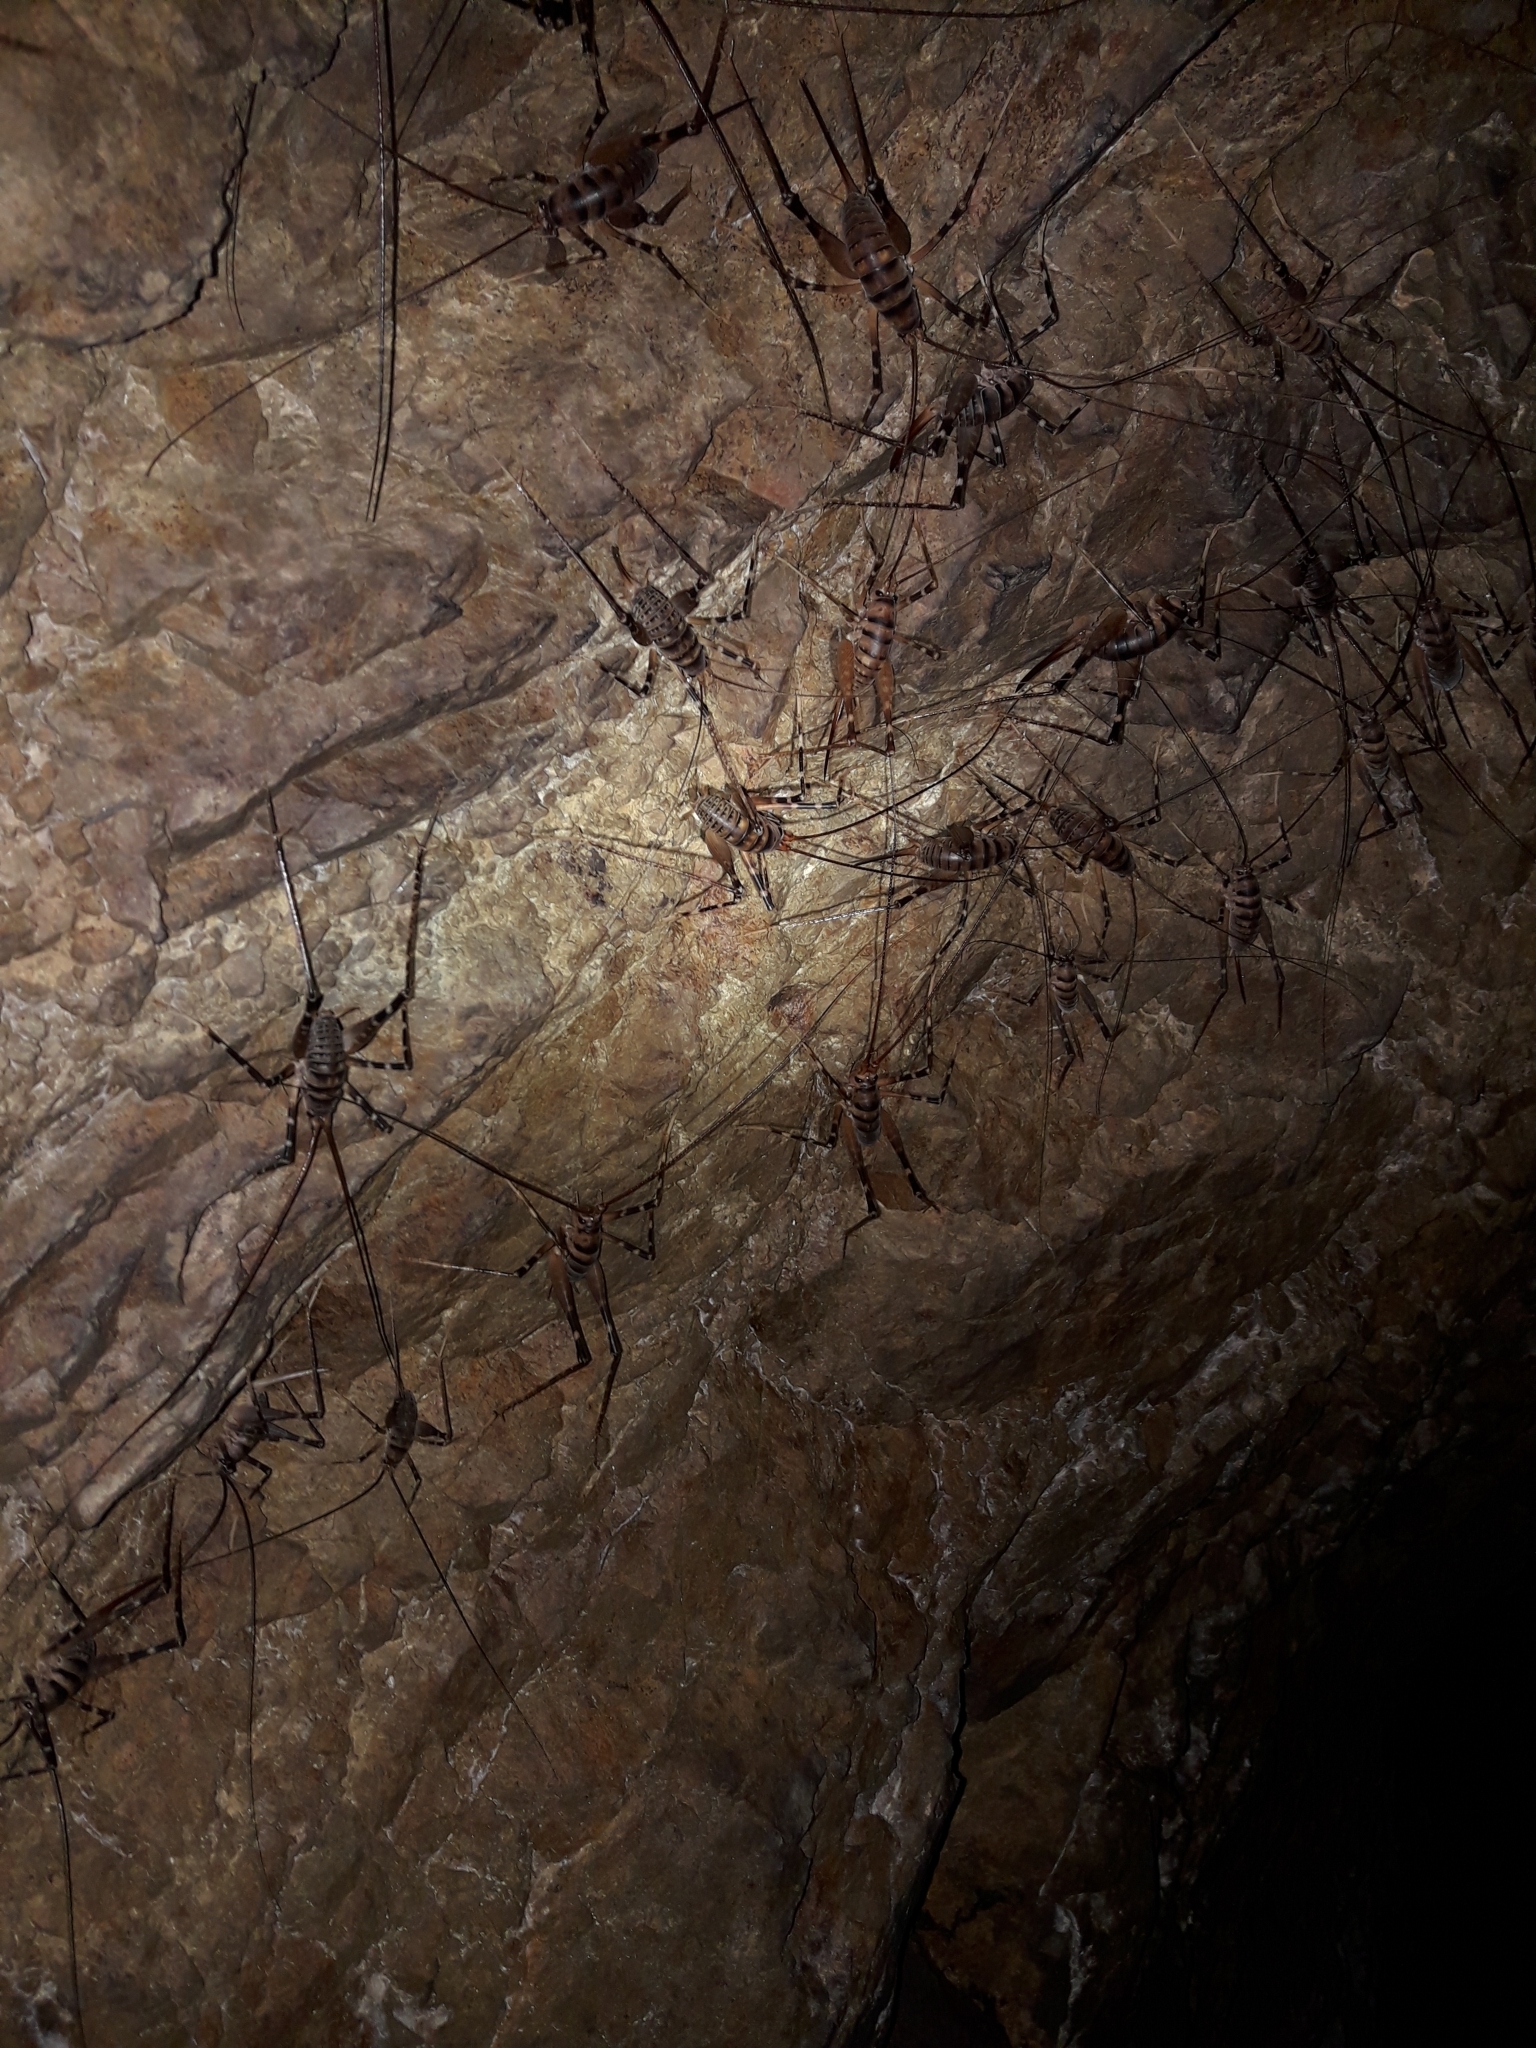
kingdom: Animalia
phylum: Arthropoda
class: Insecta
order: Orthoptera
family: Rhaphidophoridae
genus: Pachyrhamma
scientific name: Pachyrhamma edwardsii
